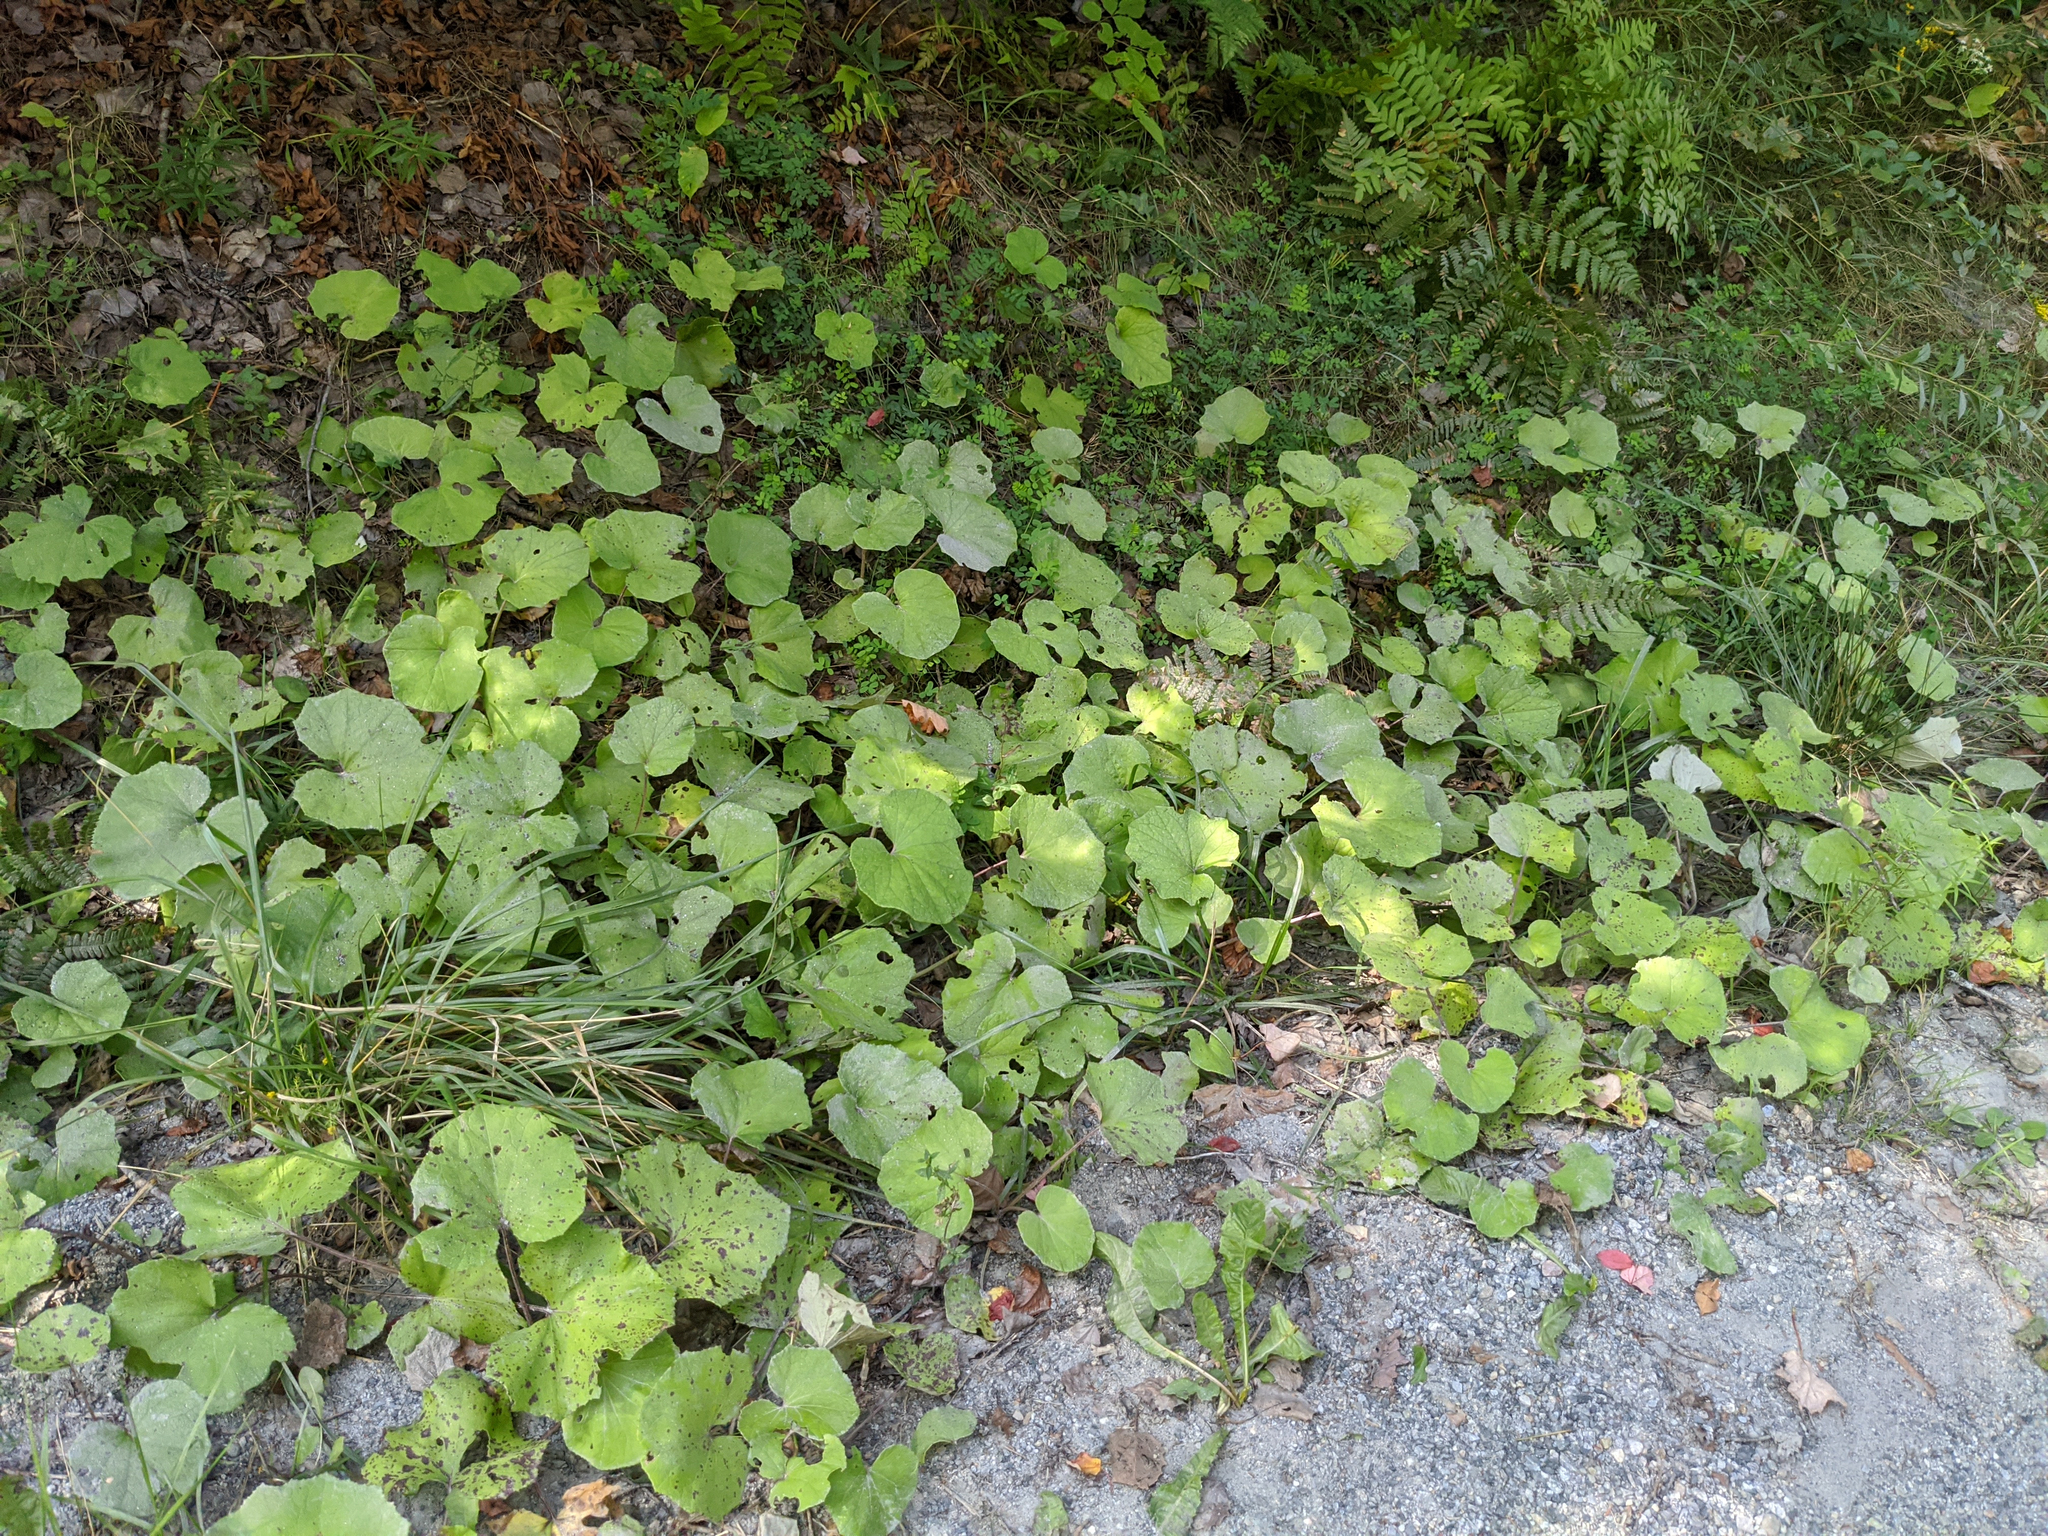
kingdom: Plantae
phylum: Tracheophyta
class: Magnoliopsida
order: Asterales
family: Asteraceae
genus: Tussilago
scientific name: Tussilago farfara
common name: Coltsfoot
